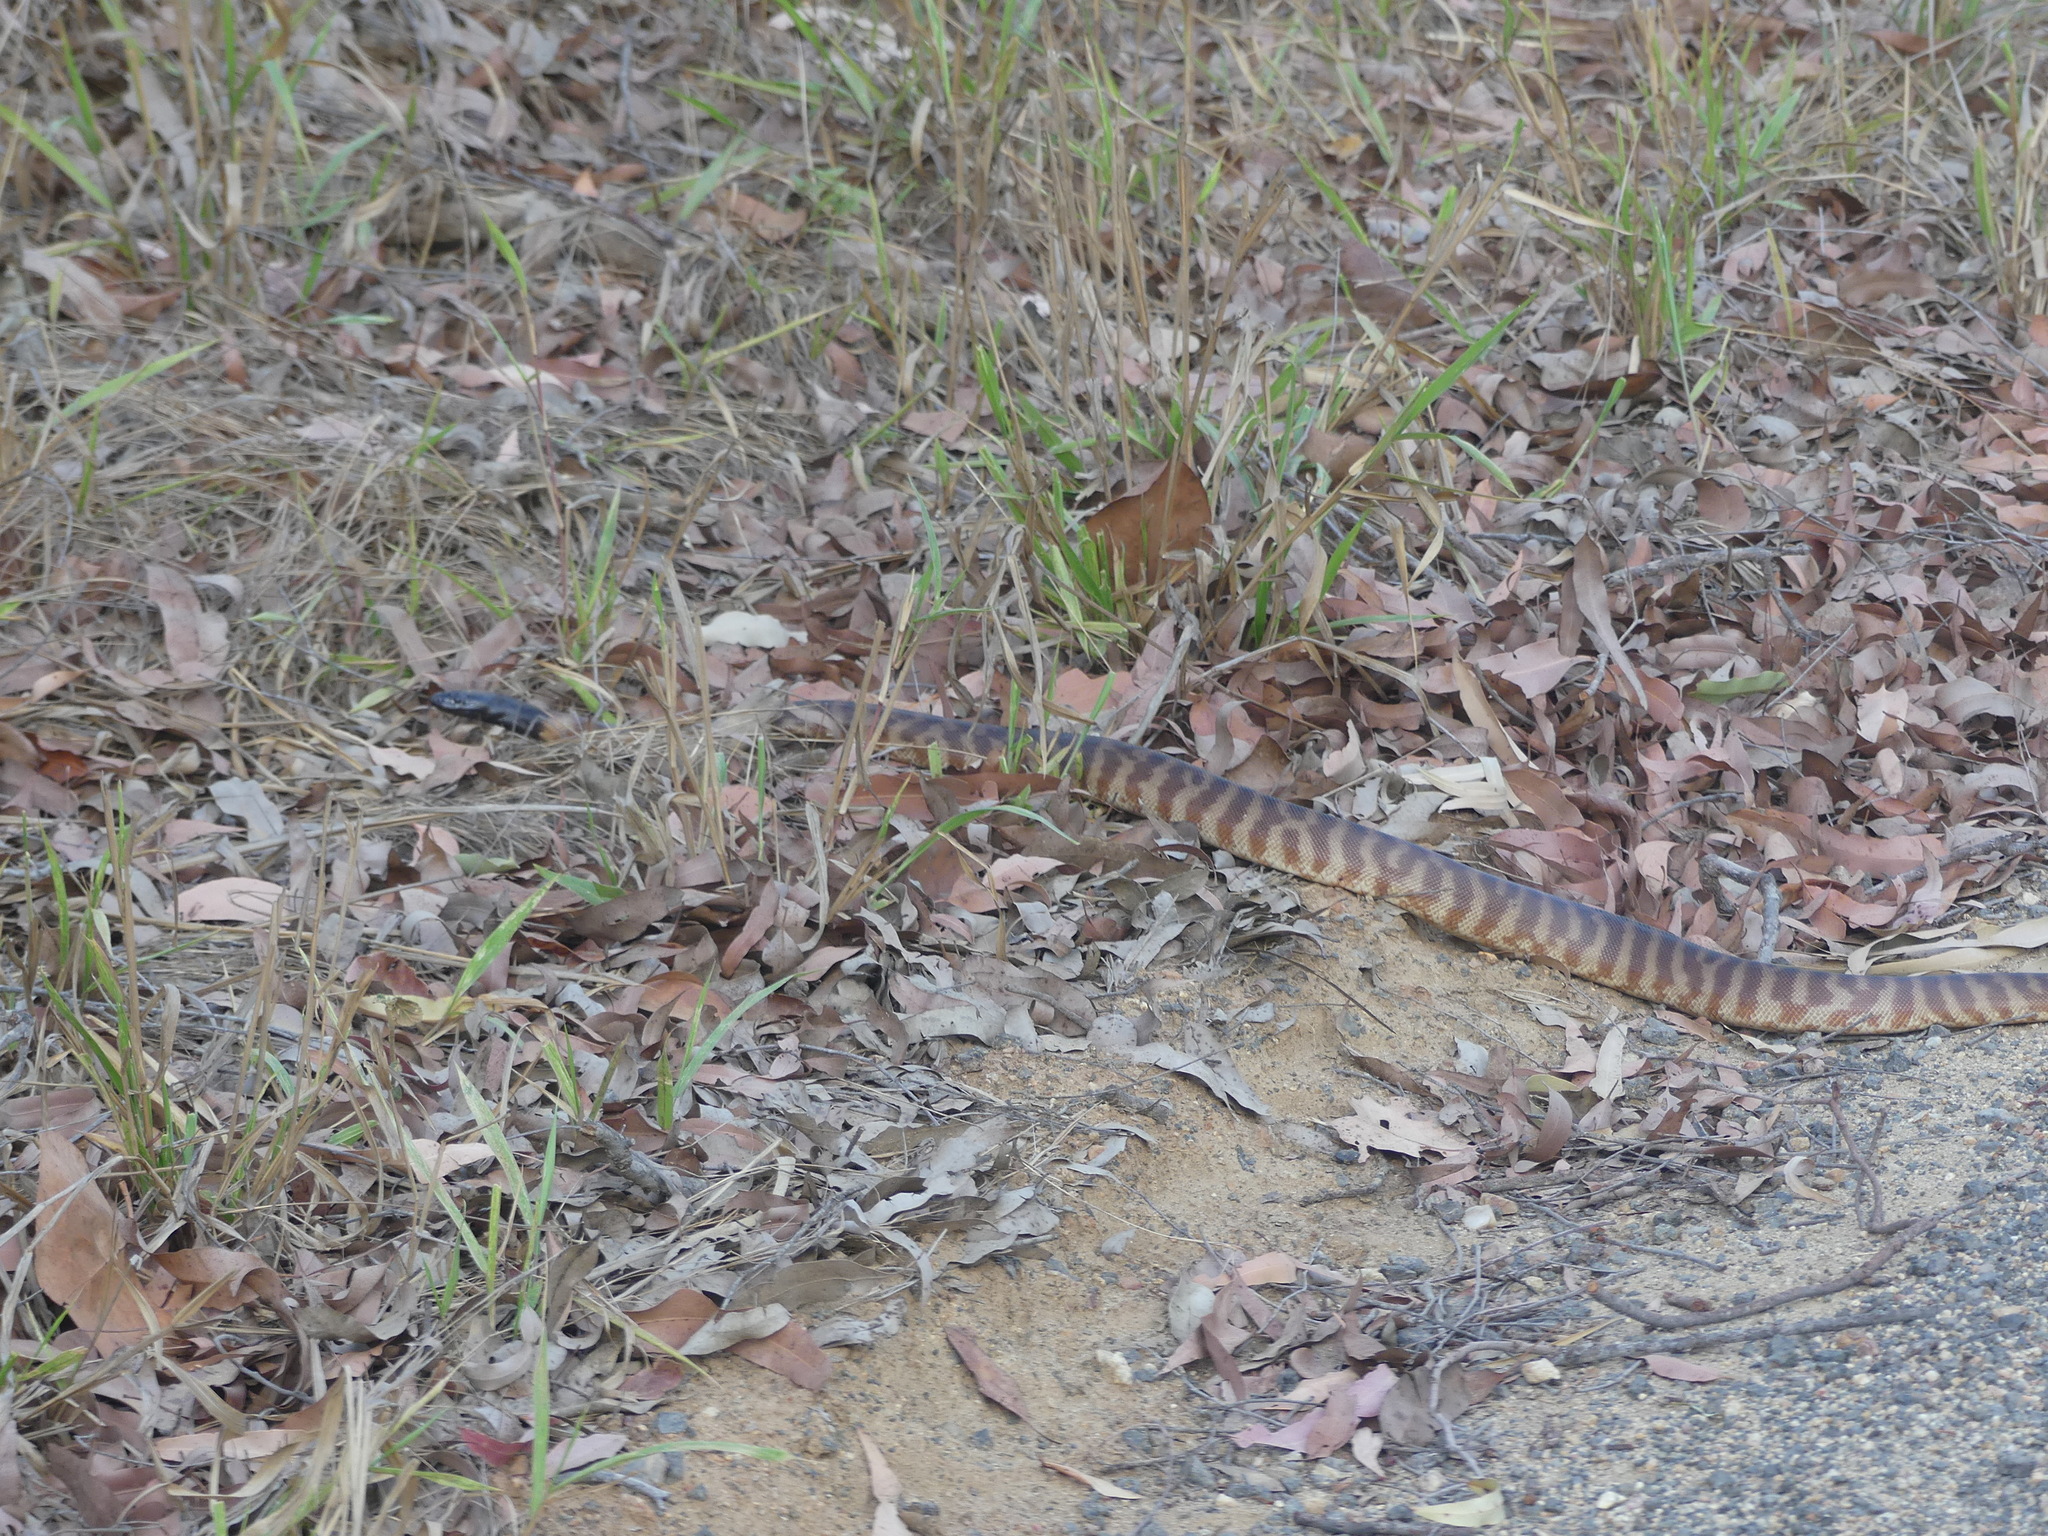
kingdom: Animalia
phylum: Chordata
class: Squamata
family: Pythonidae
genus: Aspidites
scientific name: Aspidites melanocephalus
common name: Black-headed python
